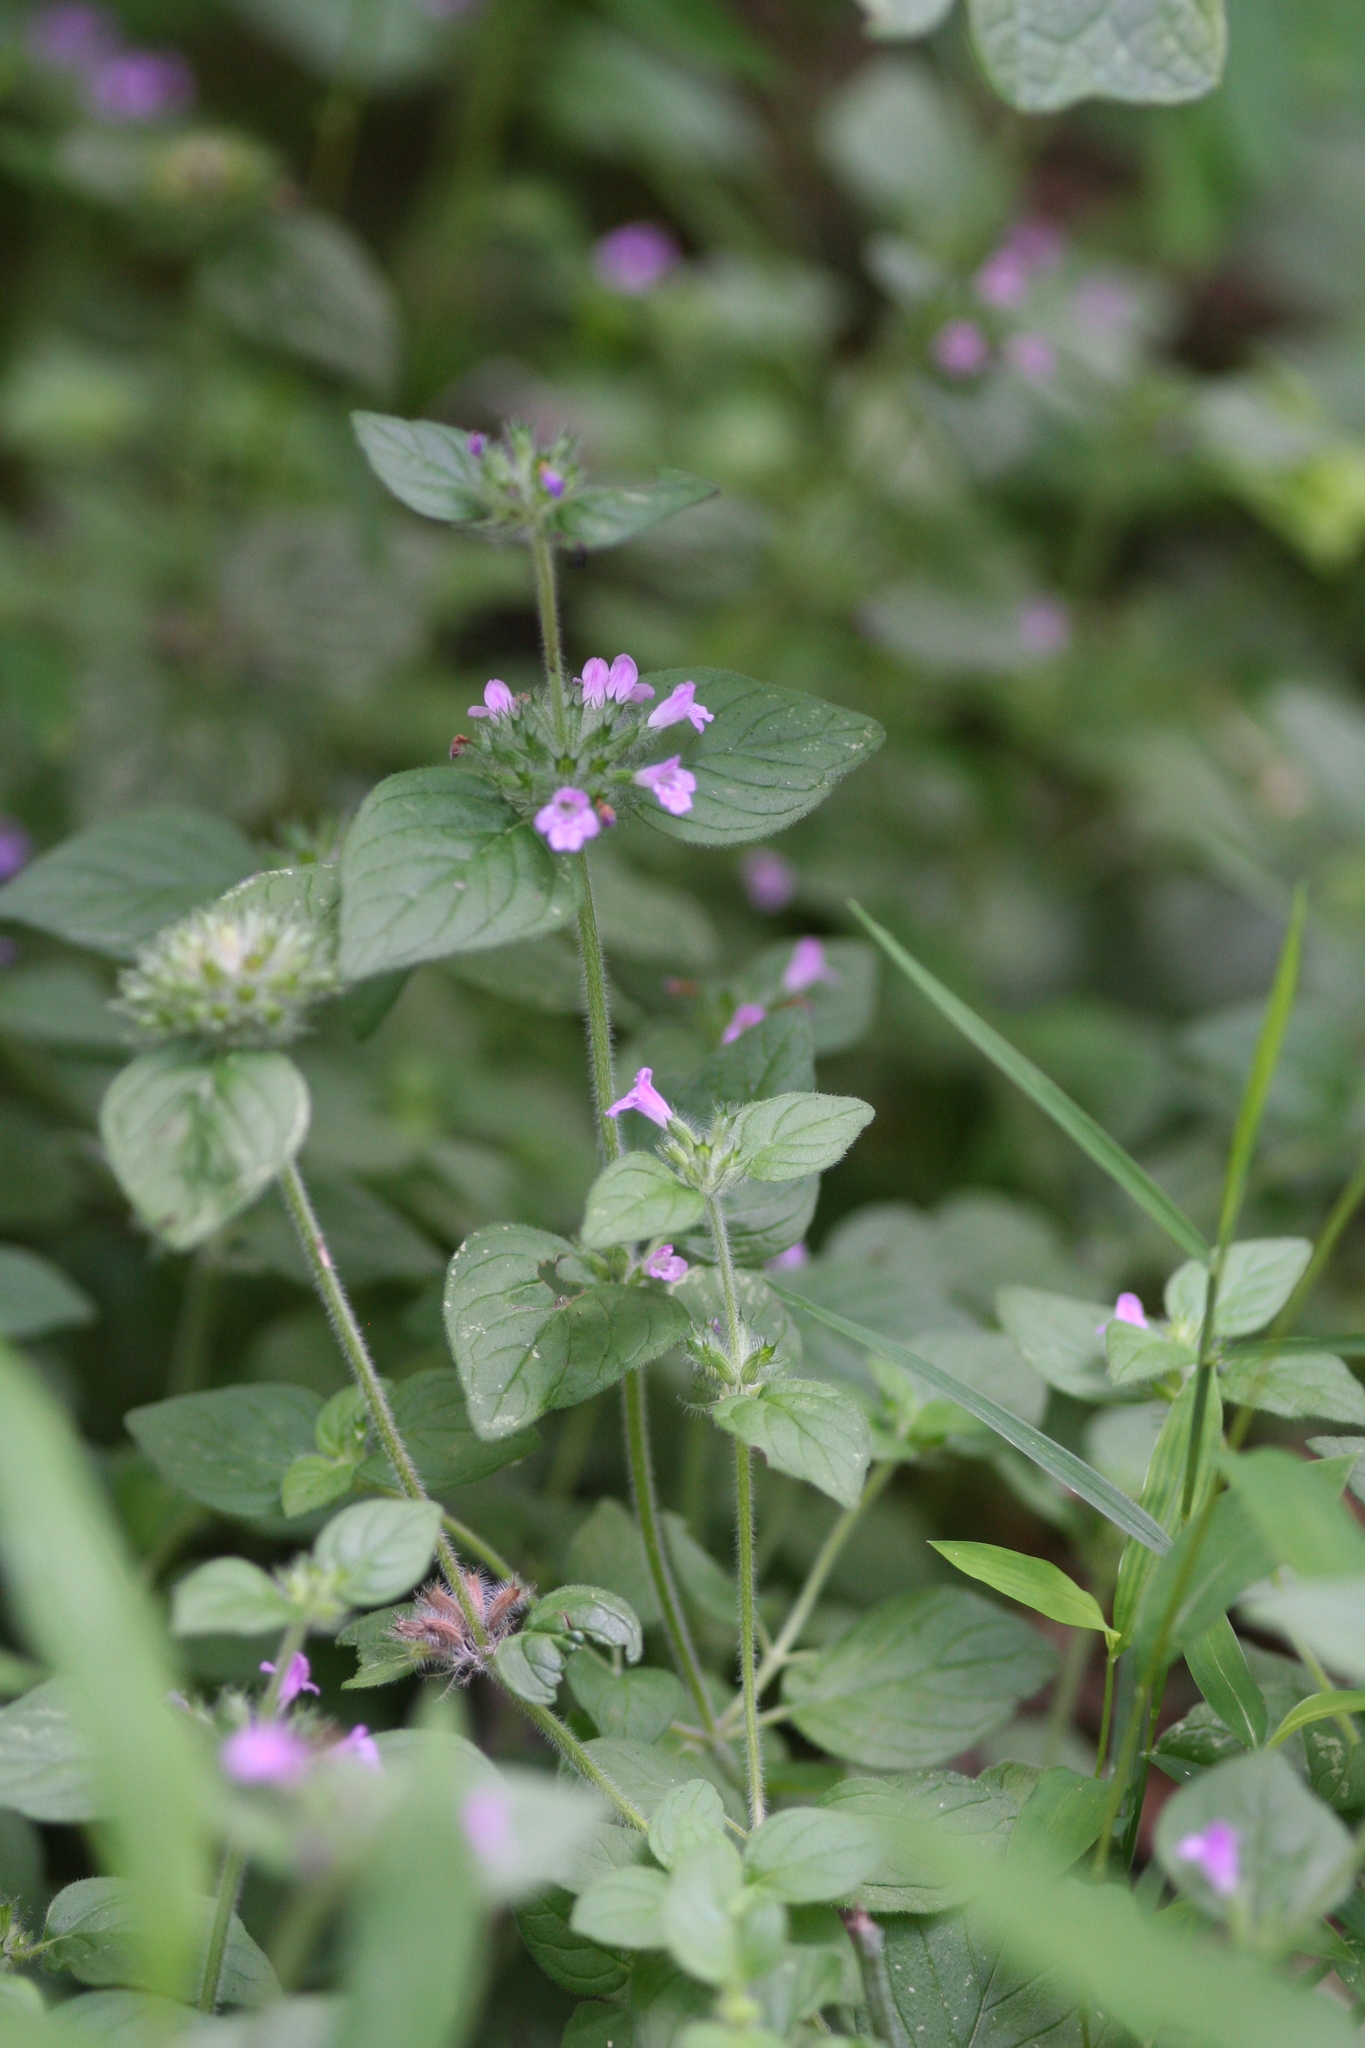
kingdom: Plantae
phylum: Tracheophyta
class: Magnoliopsida
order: Lamiales
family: Lamiaceae
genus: Clinopodium
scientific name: Clinopodium vulgare
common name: Wild basil
